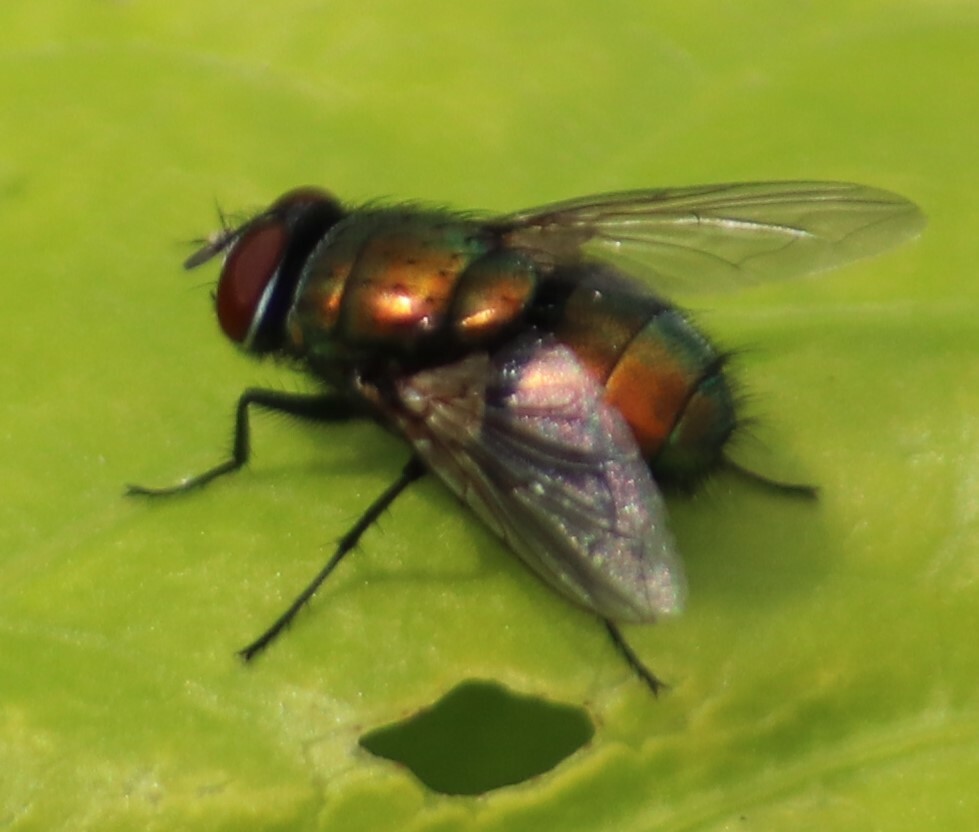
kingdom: Animalia
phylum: Arthropoda
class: Insecta
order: Diptera
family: Calliphoridae
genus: Lucilia
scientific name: Lucilia sericata
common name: Blow fly
